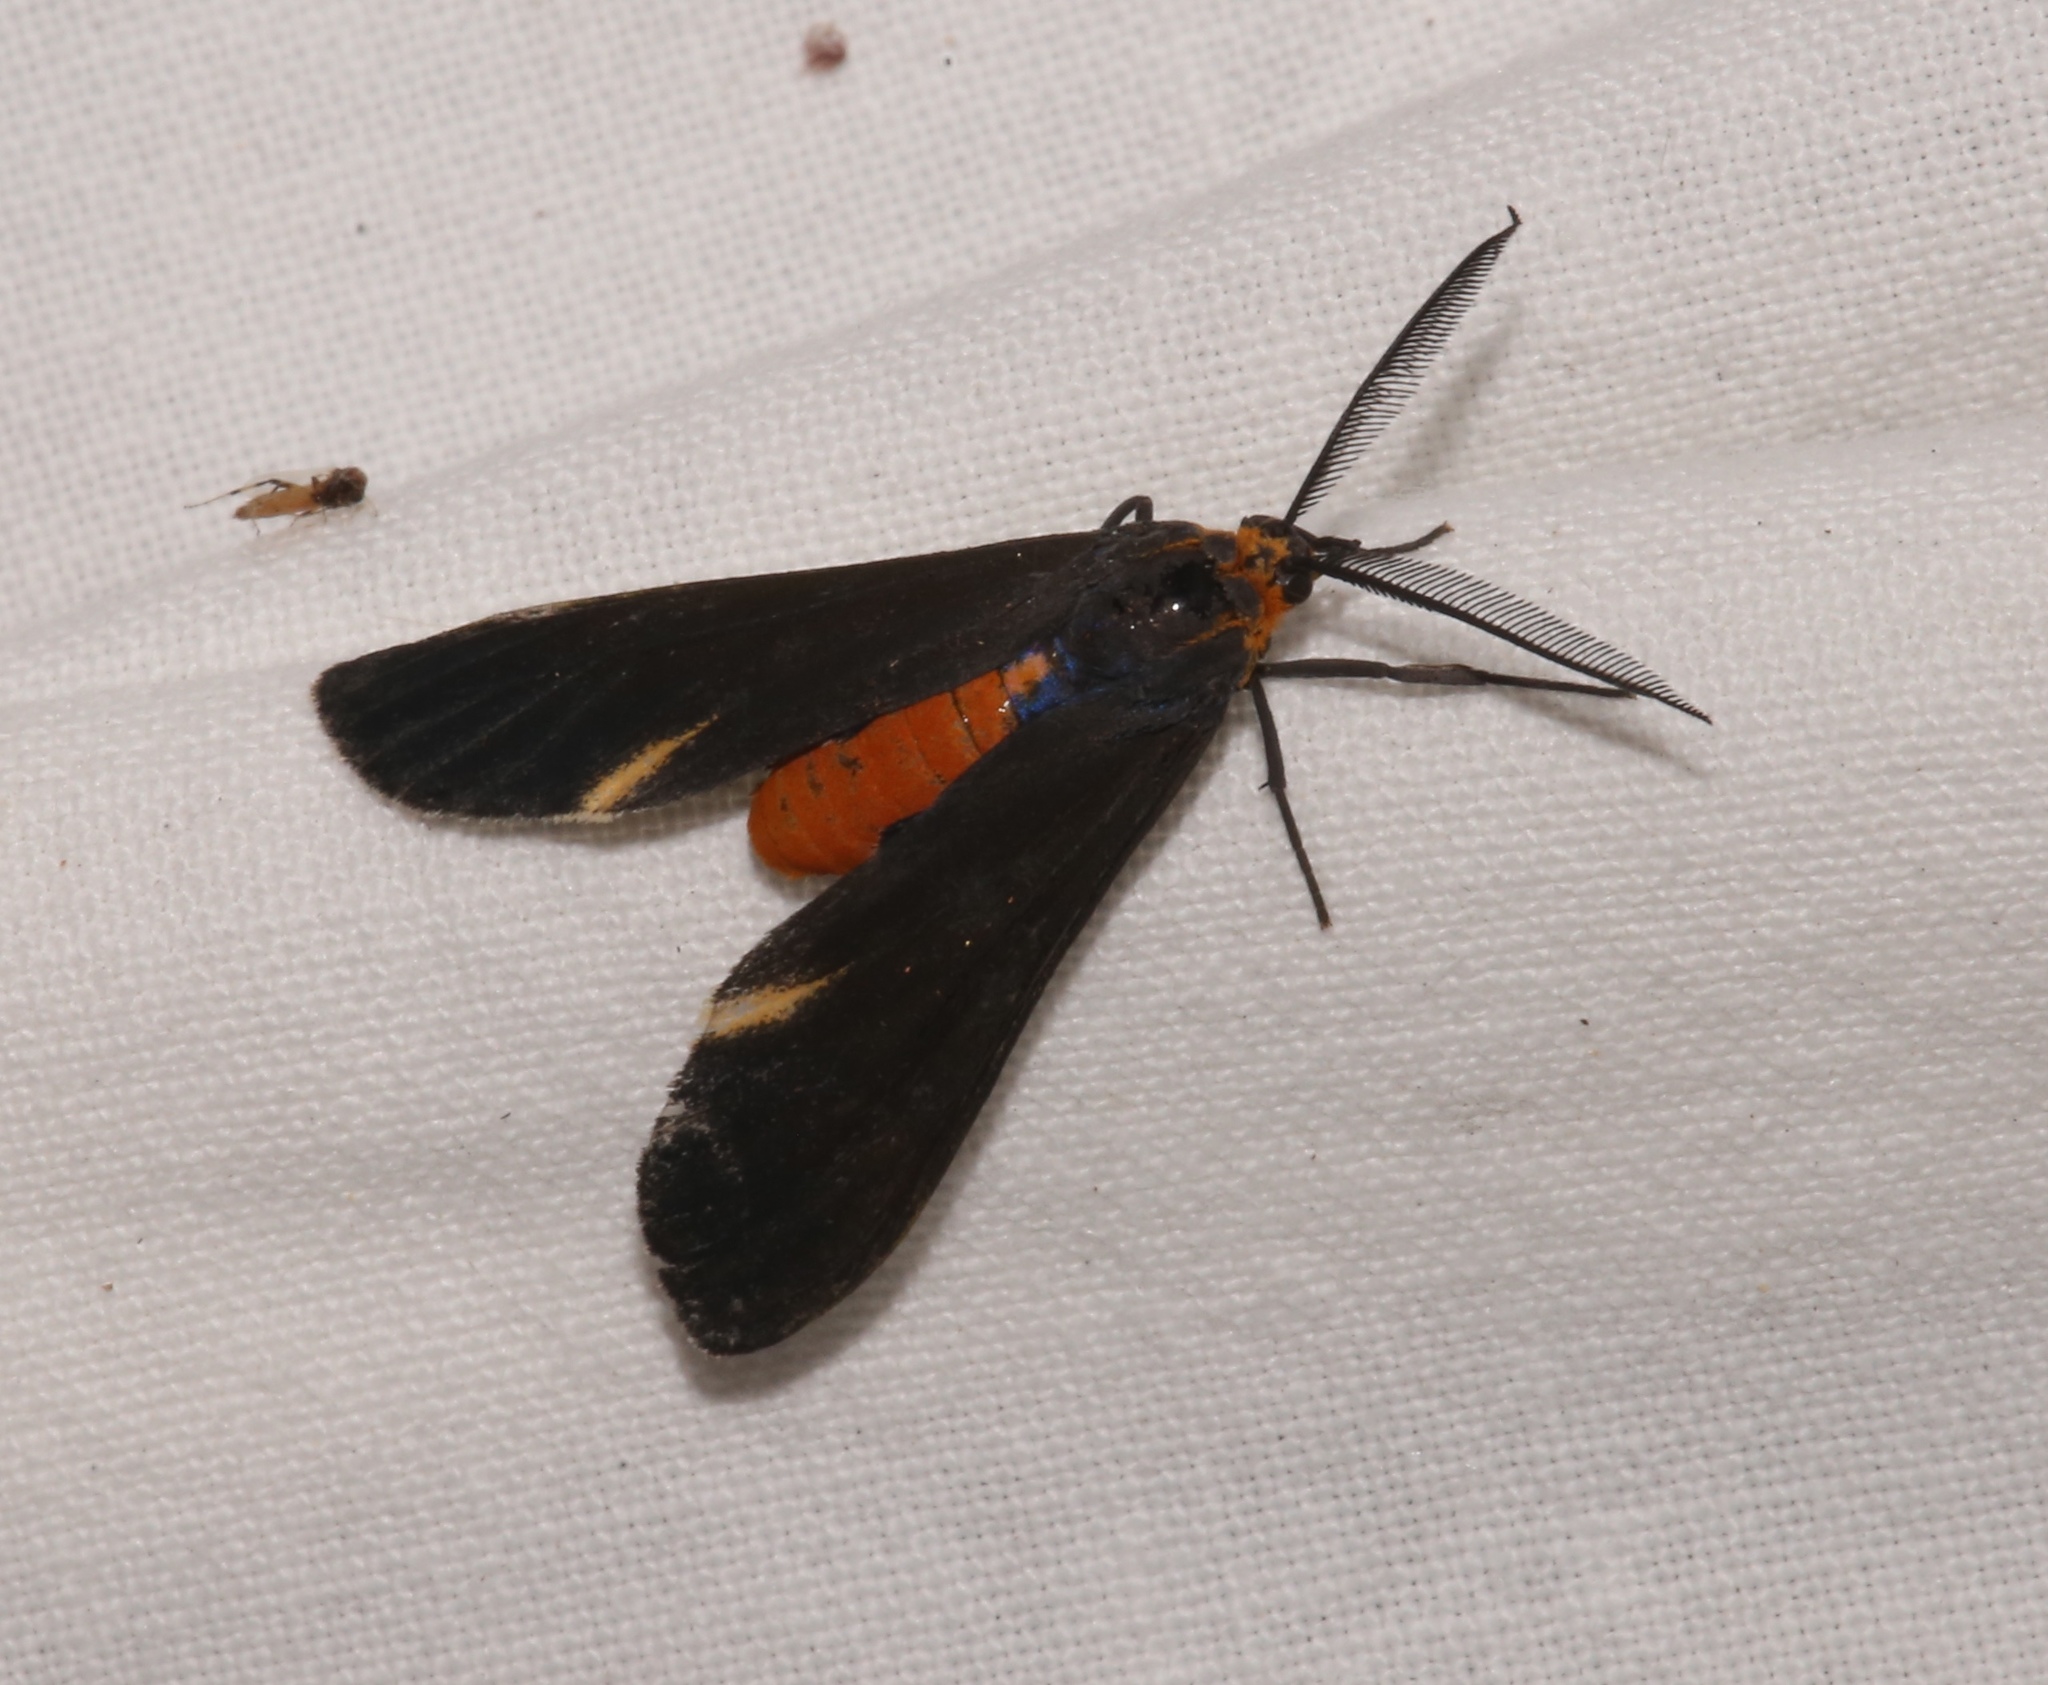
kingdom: Animalia
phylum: Arthropoda
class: Insecta
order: Lepidoptera
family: Erebidae
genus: Dahana
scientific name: Dahana atripennis
